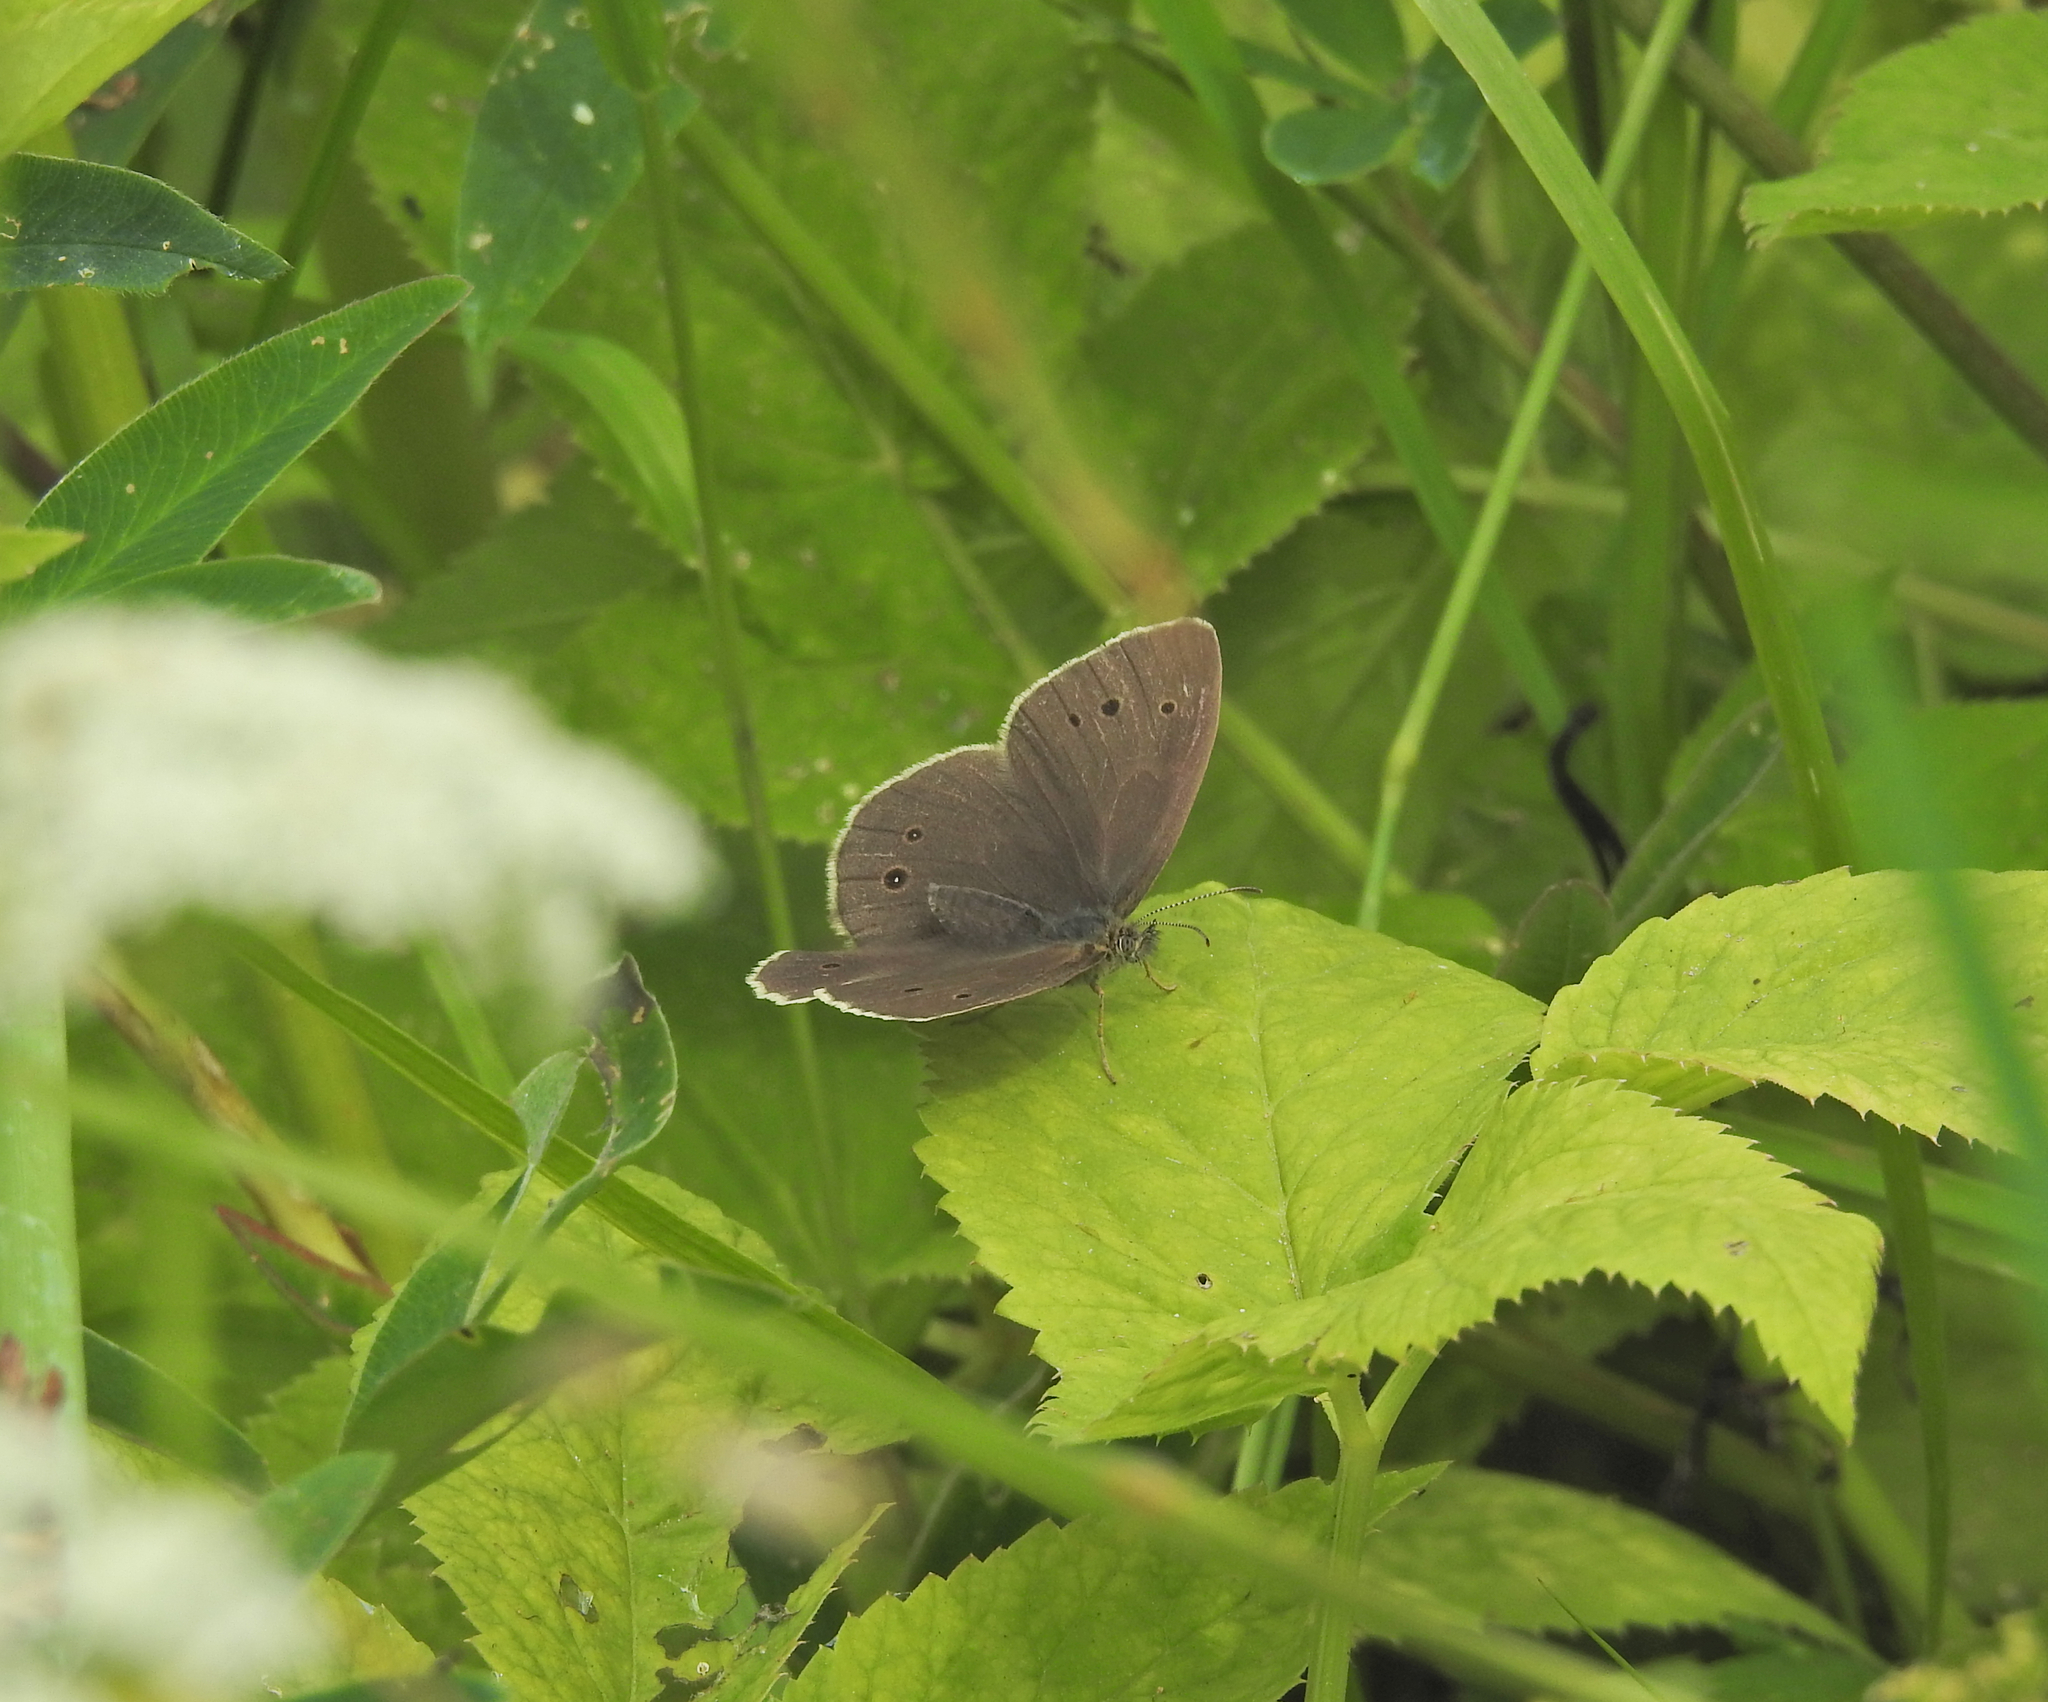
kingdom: Animalia
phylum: Arthropoda
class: Insecta
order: Lepidoptera
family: Nymphalidae
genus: Aphantopus
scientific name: Aphantopus hyperantus
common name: Ringlet
